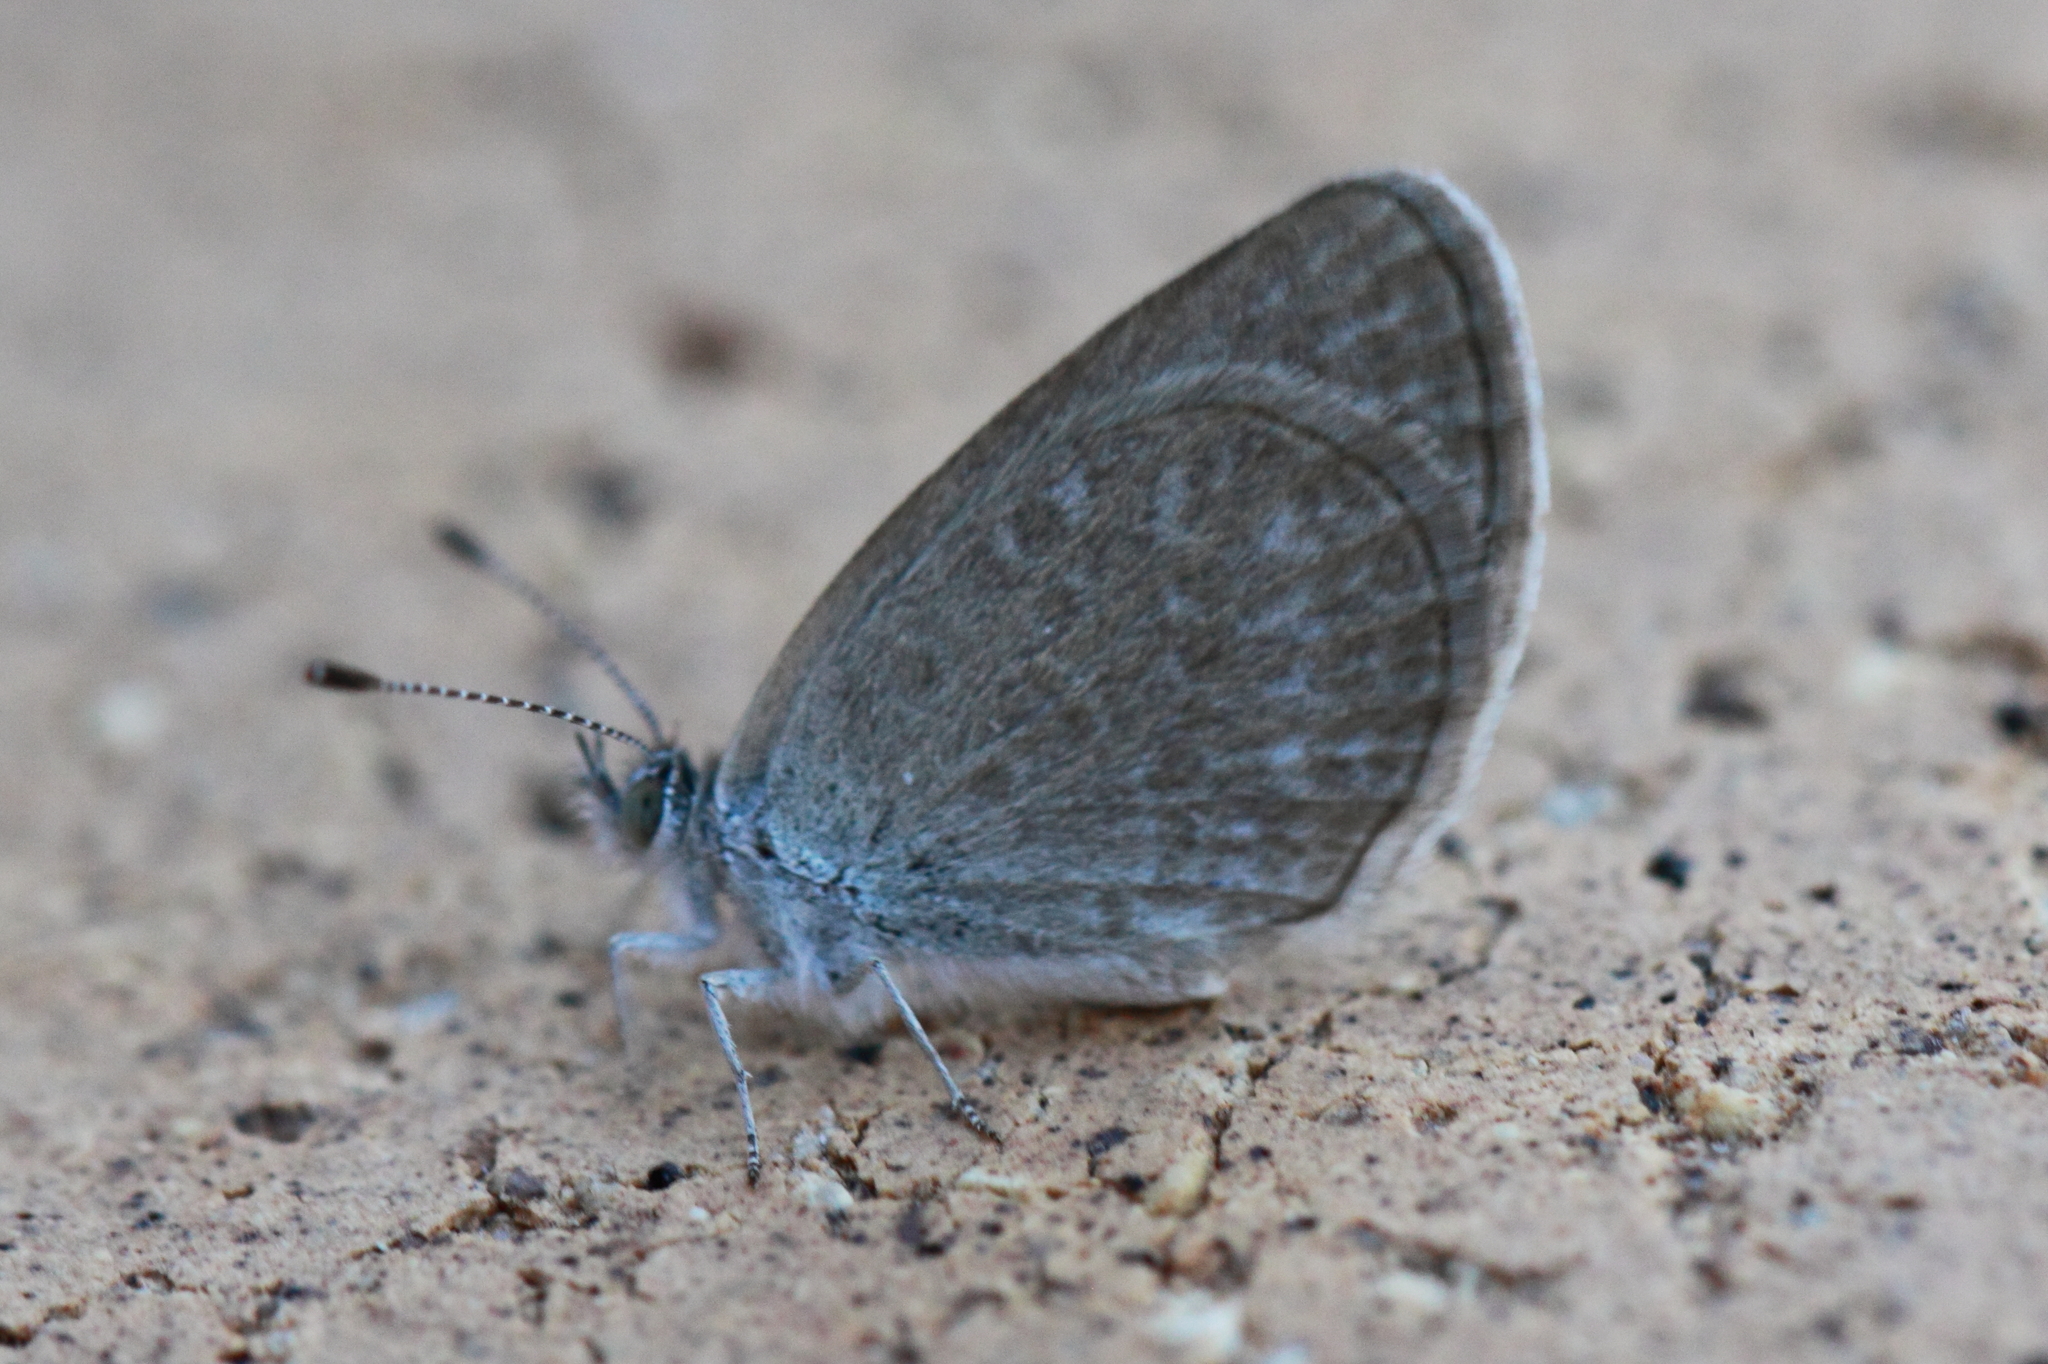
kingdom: Animalia
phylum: Arthropoda
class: Insecta
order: Lepidoptera
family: Lycaenidae
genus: Zizina
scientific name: Zizina labradus
